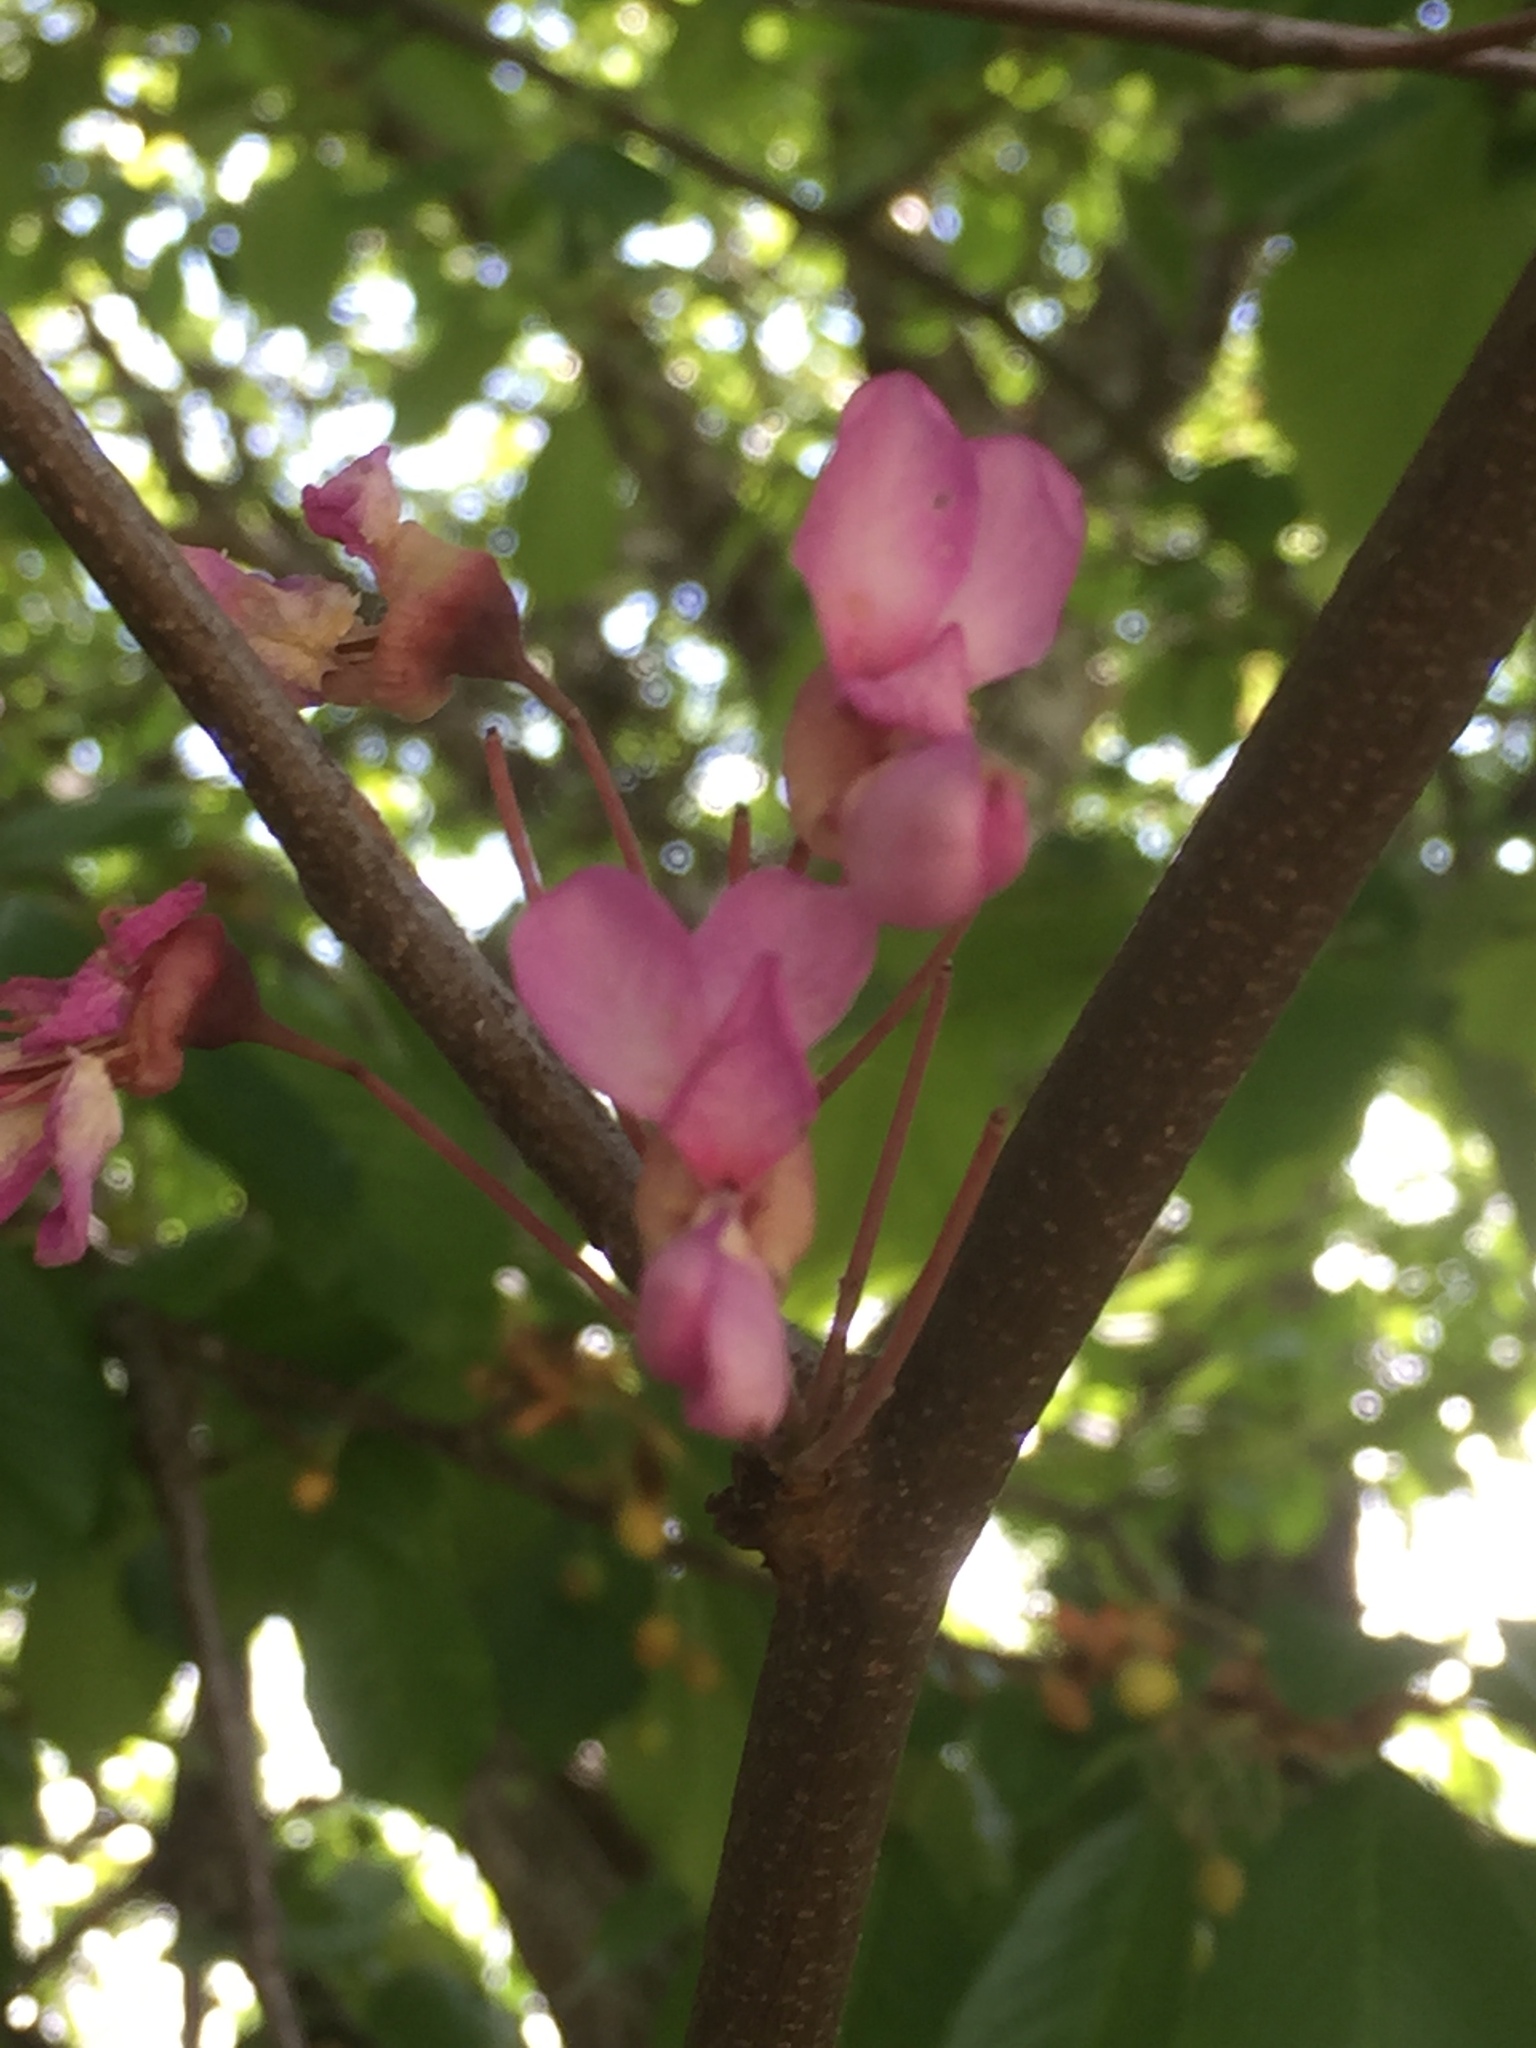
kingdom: Plantae
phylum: Tracheophyta
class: Magnoliopsida
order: Fabales
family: Fabaceae
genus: Cercis
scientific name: Cercis siliquastrum
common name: Judas tree
